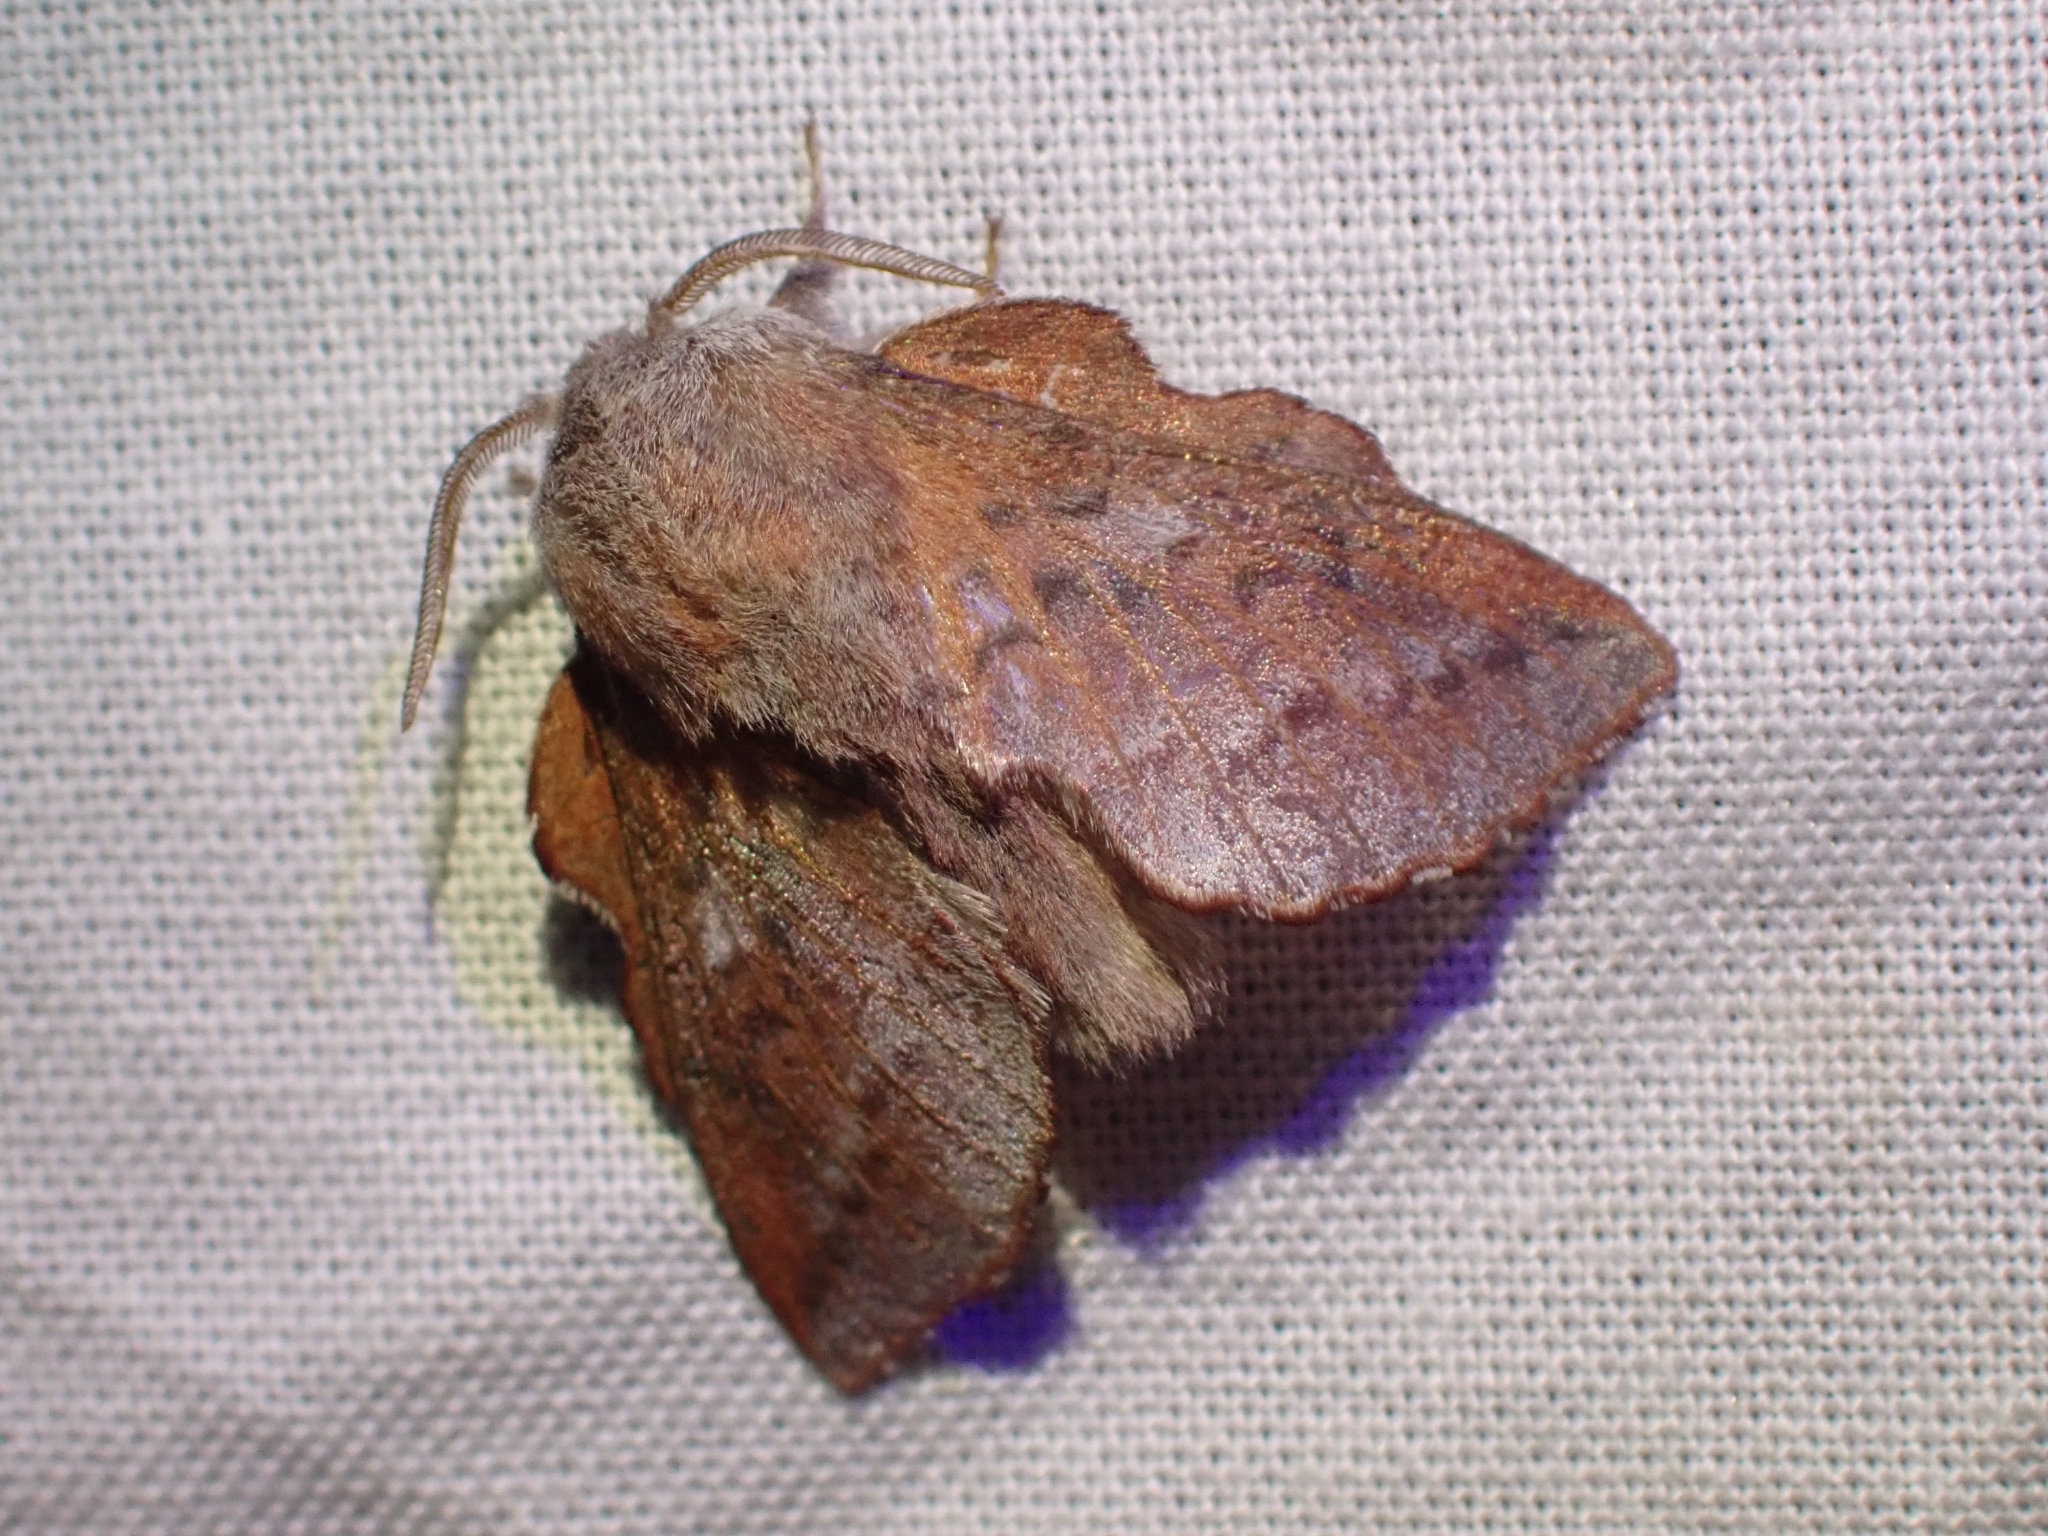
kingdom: Animalia
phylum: Arthropoda
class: Insecta
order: Lepidoptera
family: Lasiocampidae
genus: Phyllodesma
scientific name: Phyllodesma americana
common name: American lappet moth
